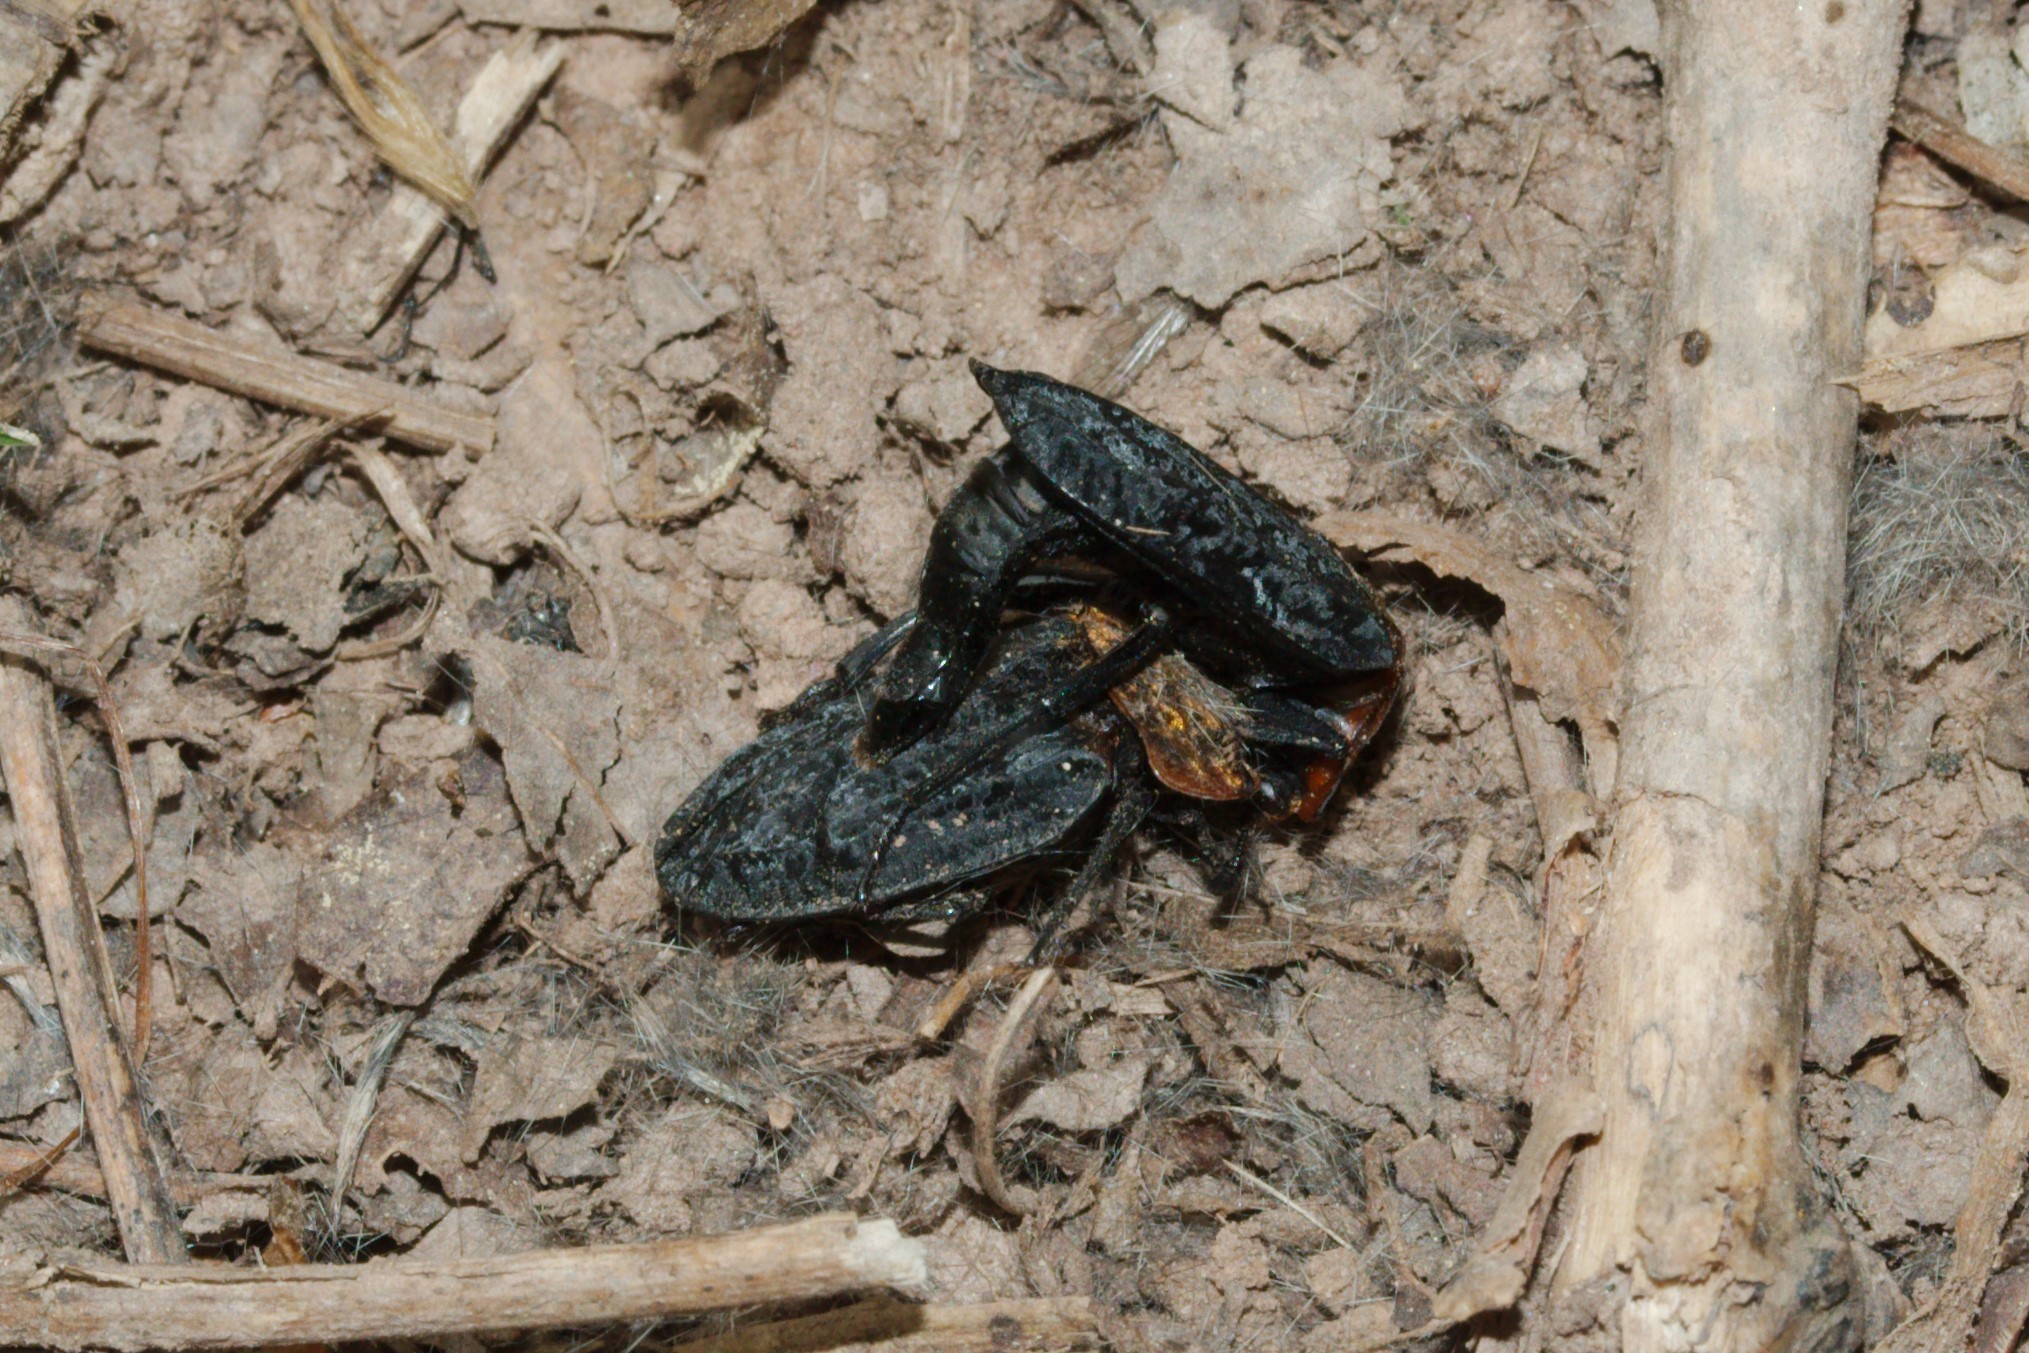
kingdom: Animalia
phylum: Arthropoda
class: Insecta
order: Coleoptera
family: Staphylinidae
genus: Oiceoptoma
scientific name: Oiceoptoma thoracicum
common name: Red-breasted carrion beetle
